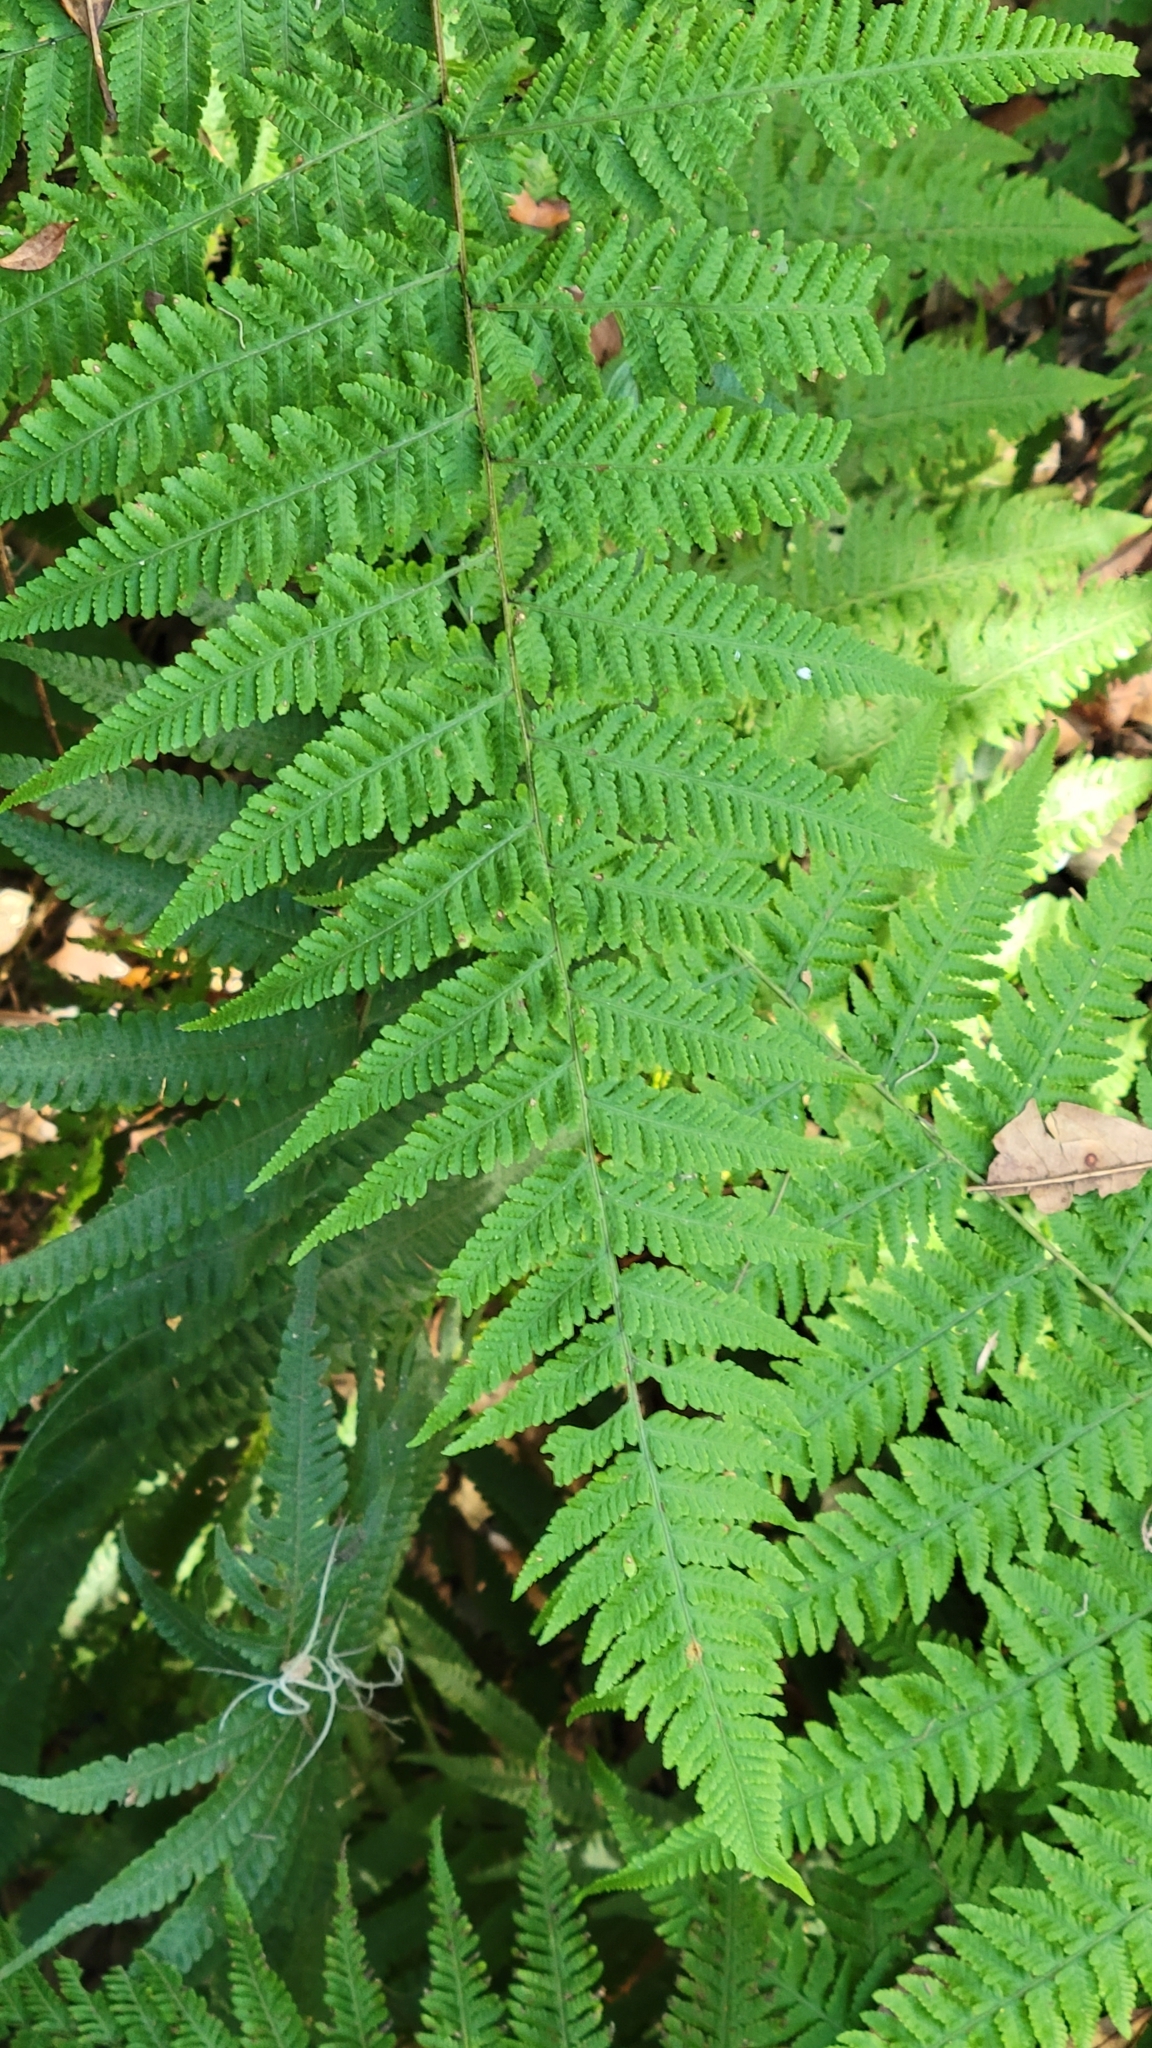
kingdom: Plantae
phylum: Tracheophyta
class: Polypodiopsida
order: Polypodiales
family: Thelypteridaceae
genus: Macrothelypteris
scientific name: Macrothelypteris torresiana
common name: Swordfern
